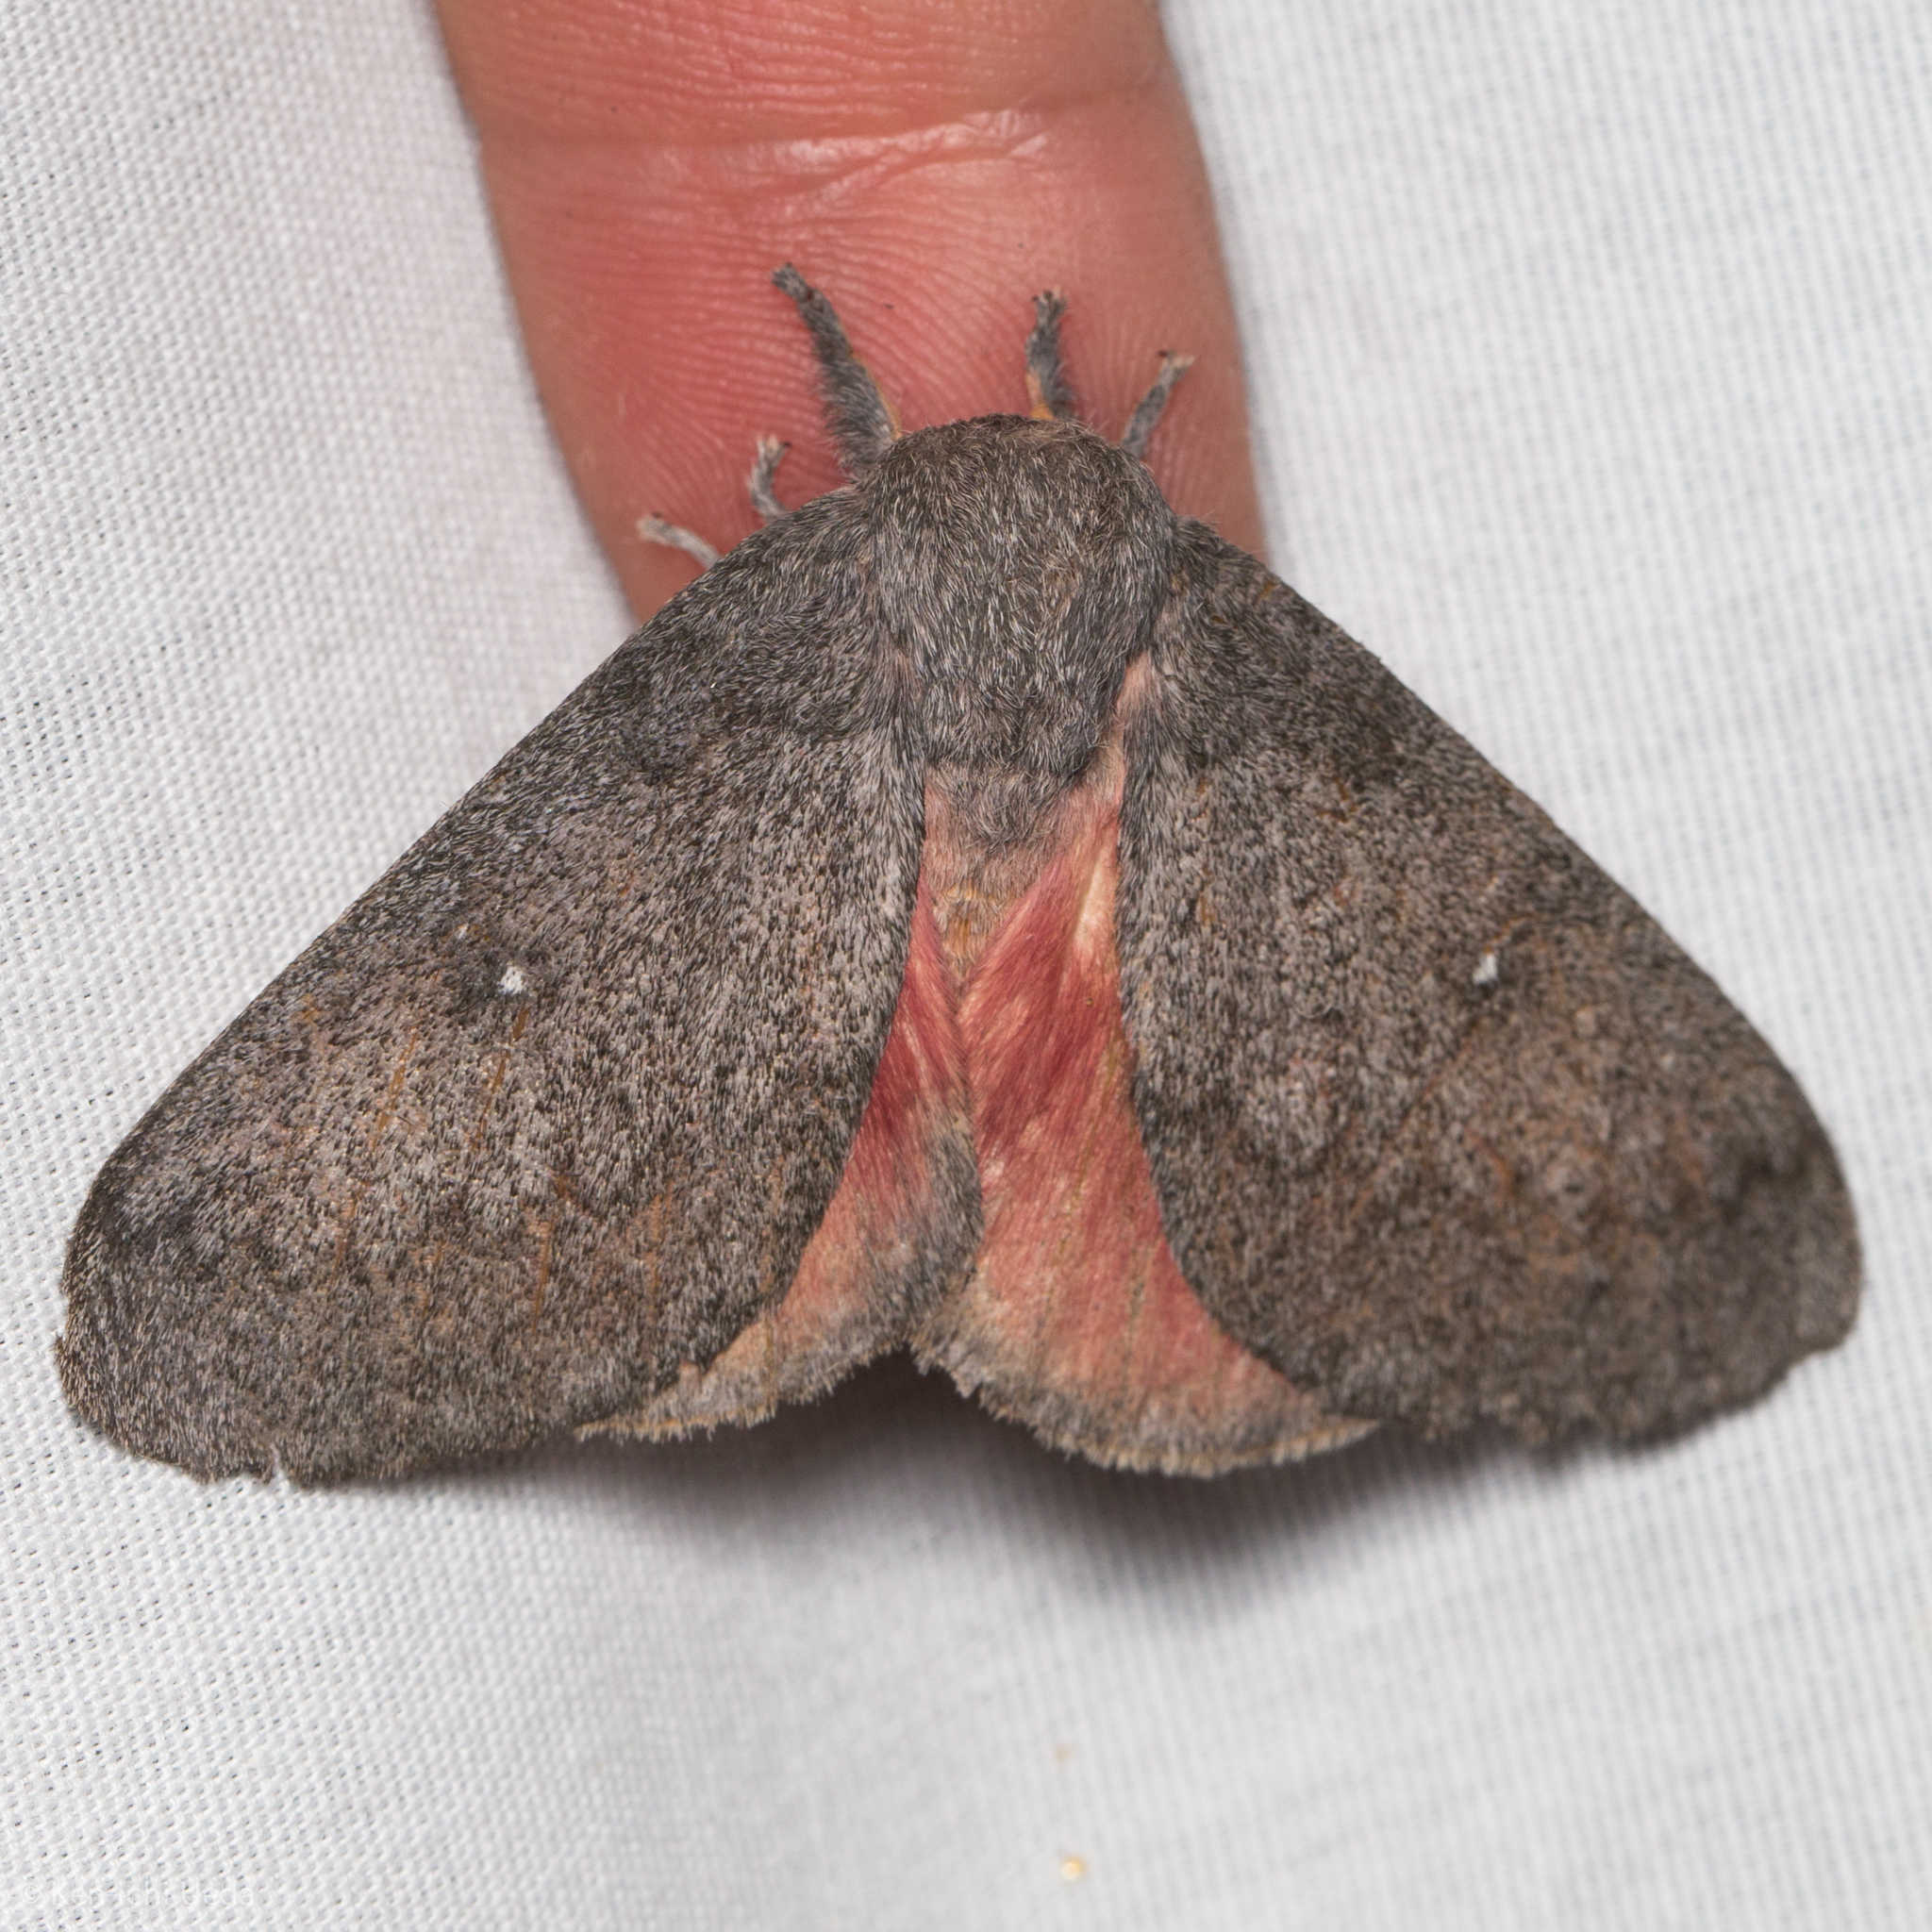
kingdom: Animalia
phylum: Arthropoda
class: Insecta
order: Lepidoptera
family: Saturniidae
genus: Syssphinx
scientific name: Syssphinx hubbardi
